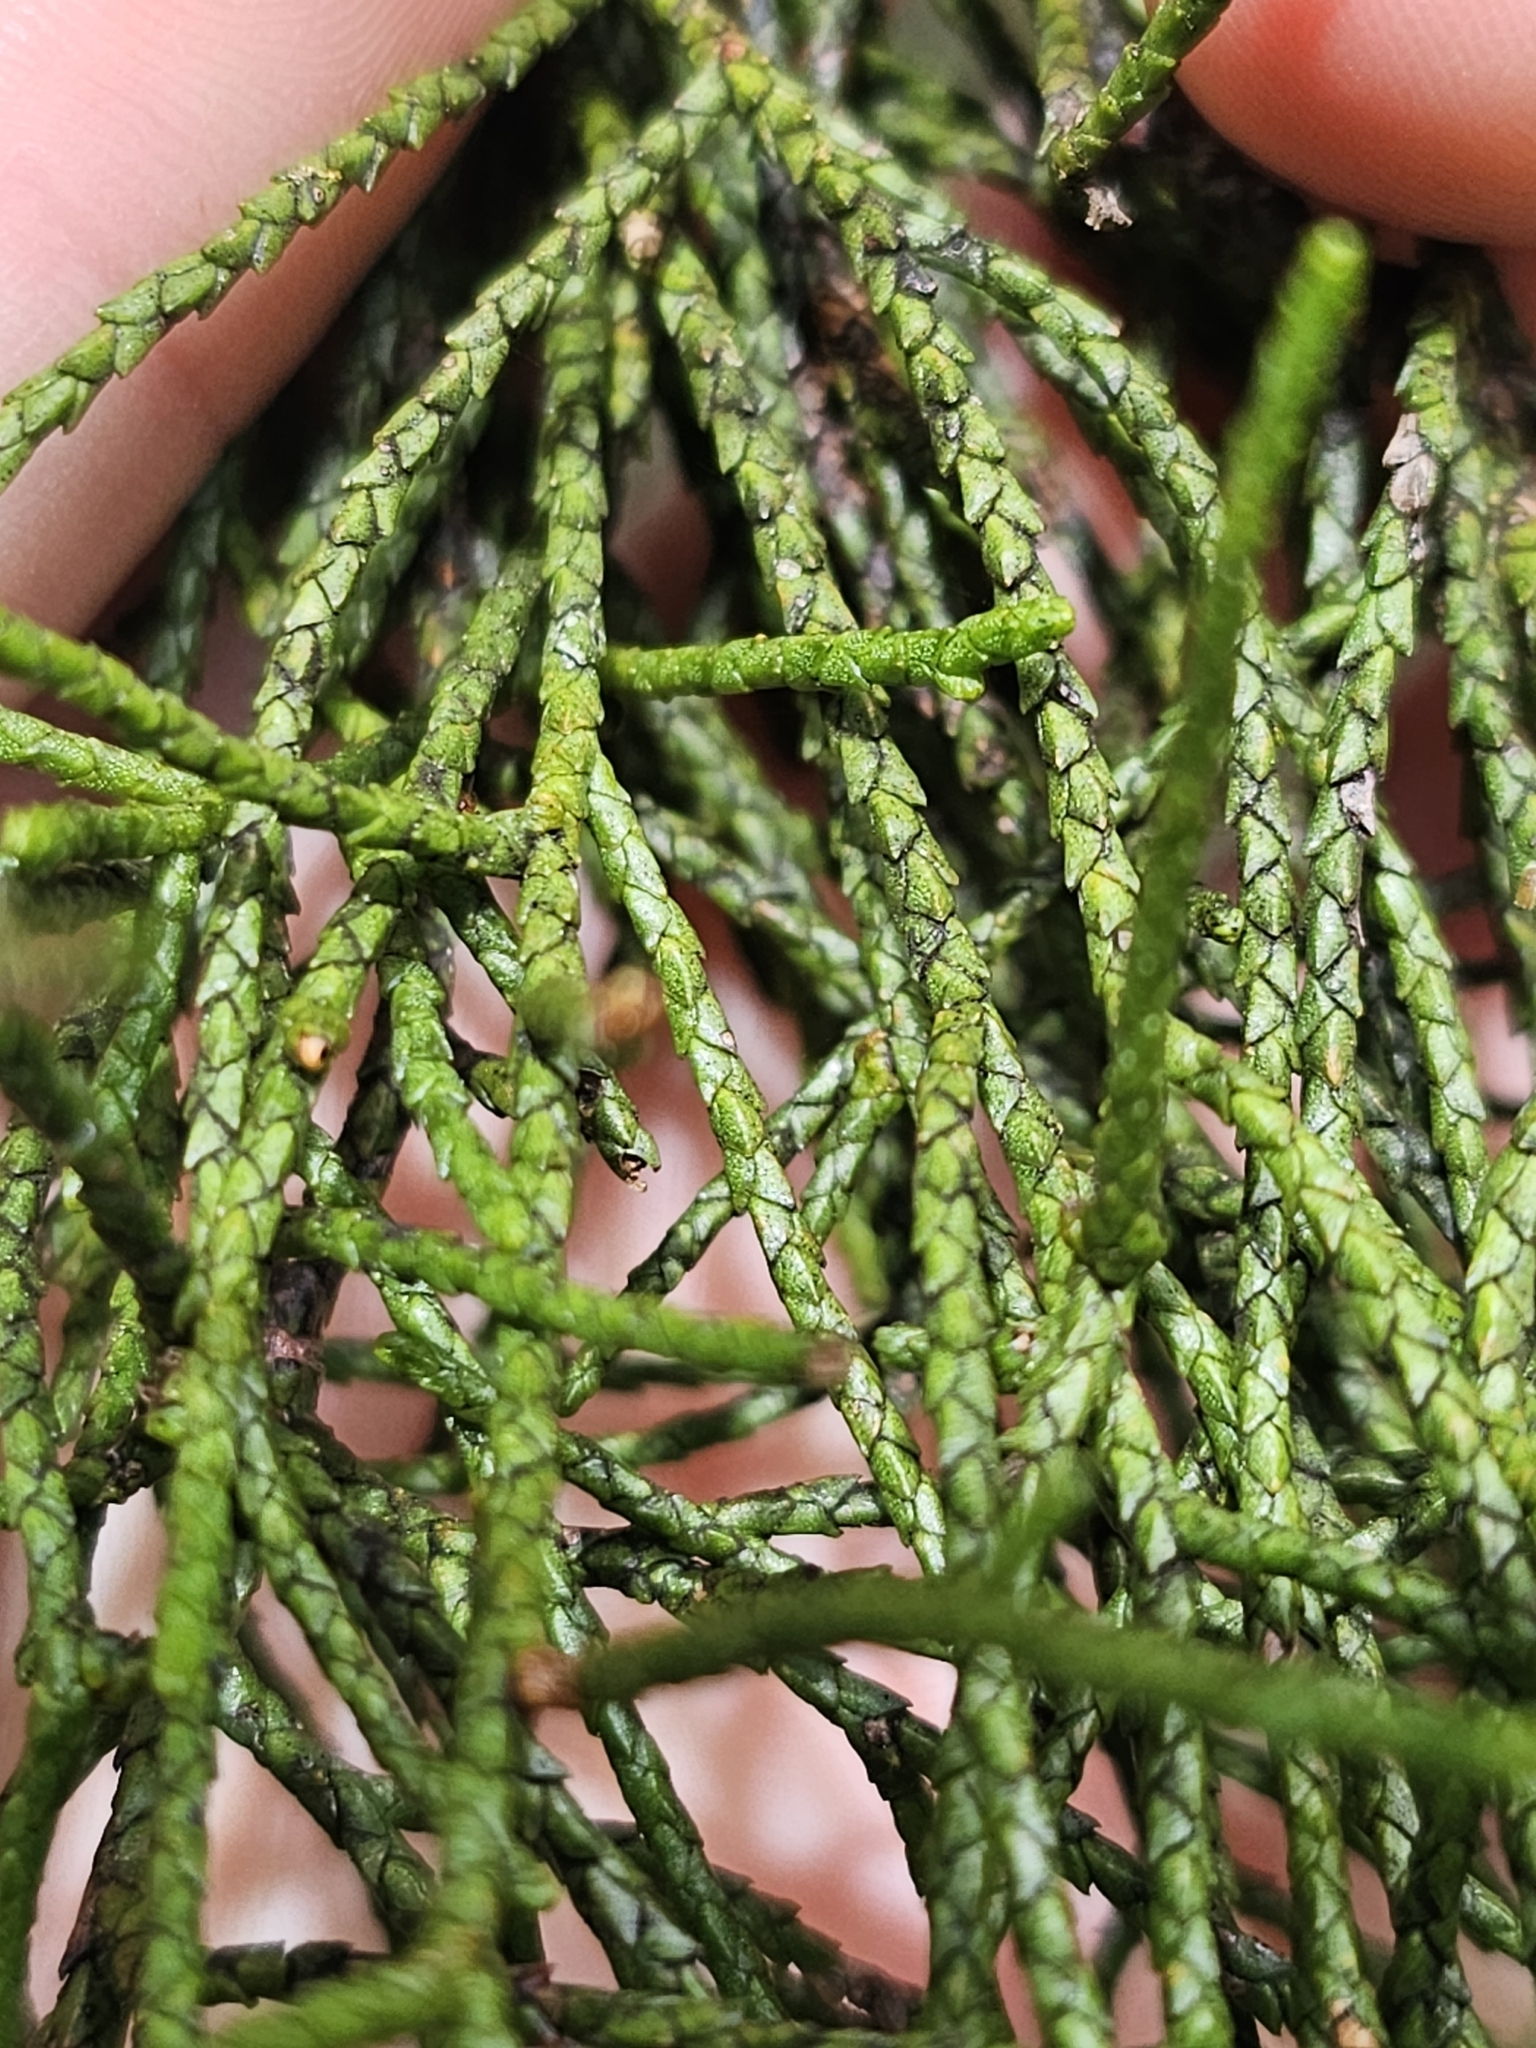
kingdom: Plantae
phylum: Tracheophyta
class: Pinopsida
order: Pinales
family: Podocarpaceae
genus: Manoao
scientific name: Manoao colensoi
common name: Silver pine
